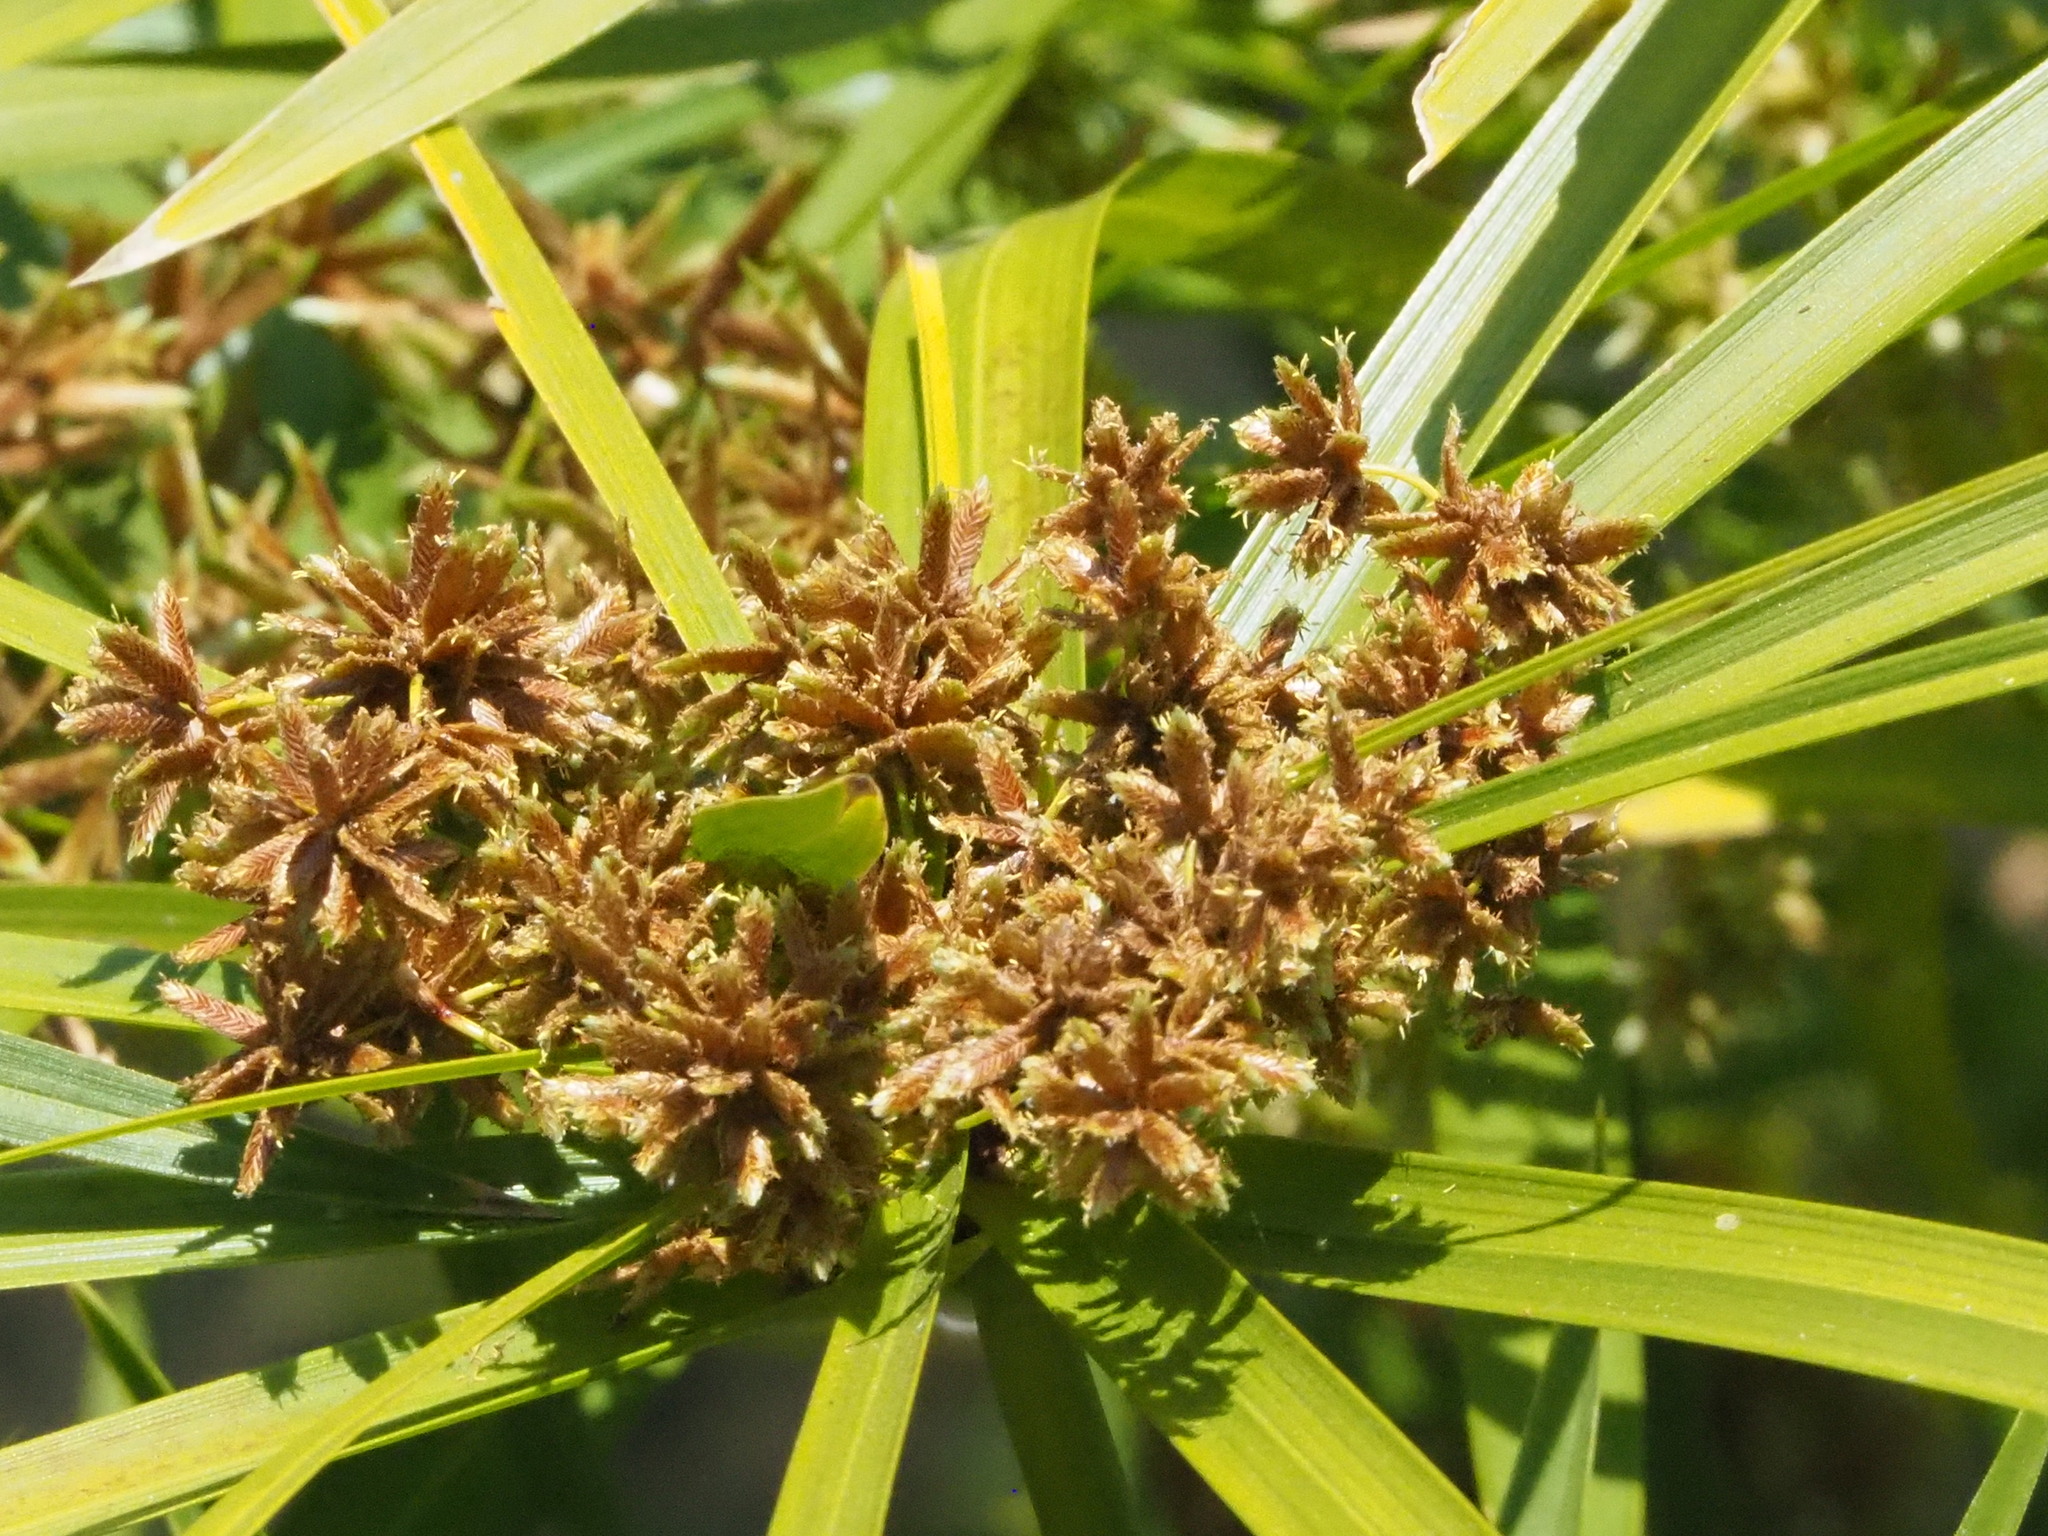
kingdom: Plantae
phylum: Tracheophyta
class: Liliopsida
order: Poales
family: Cyperaceae
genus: Cyperus
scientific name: Cyperus alternifolius
